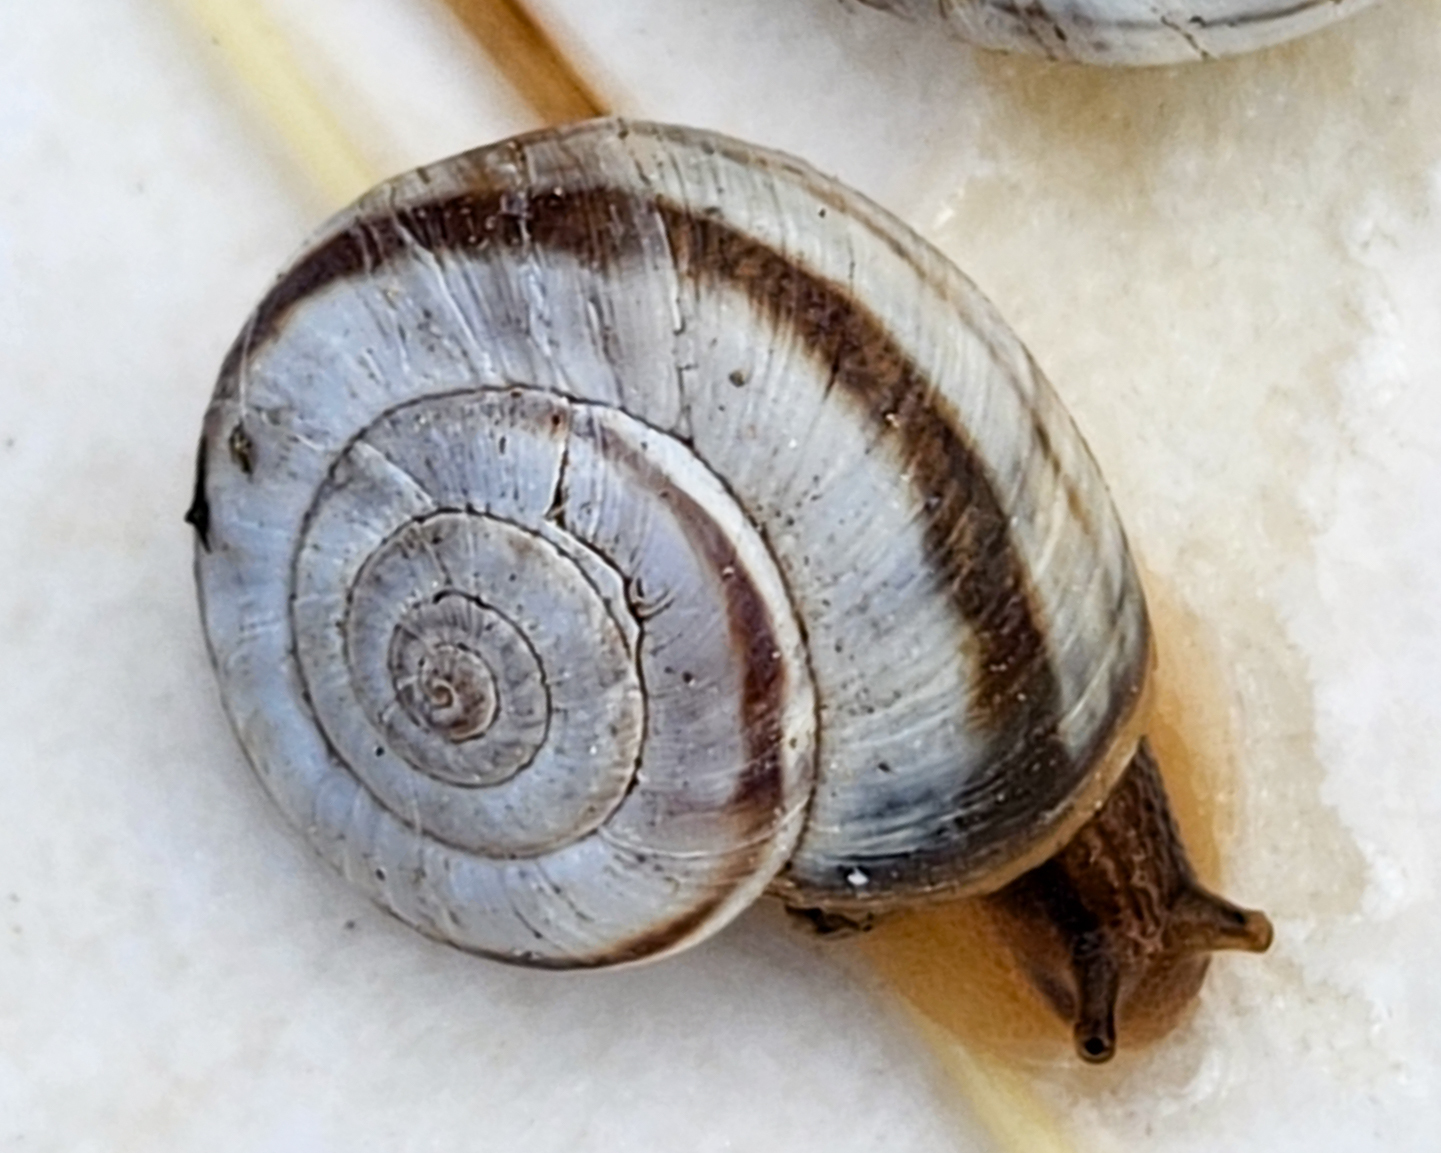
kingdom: Animalia
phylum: Mollusca
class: Gastropoda
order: Stylommatophora
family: Geomitridae
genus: Xerolenta
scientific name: Xerolenta obvia
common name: White heath snail
